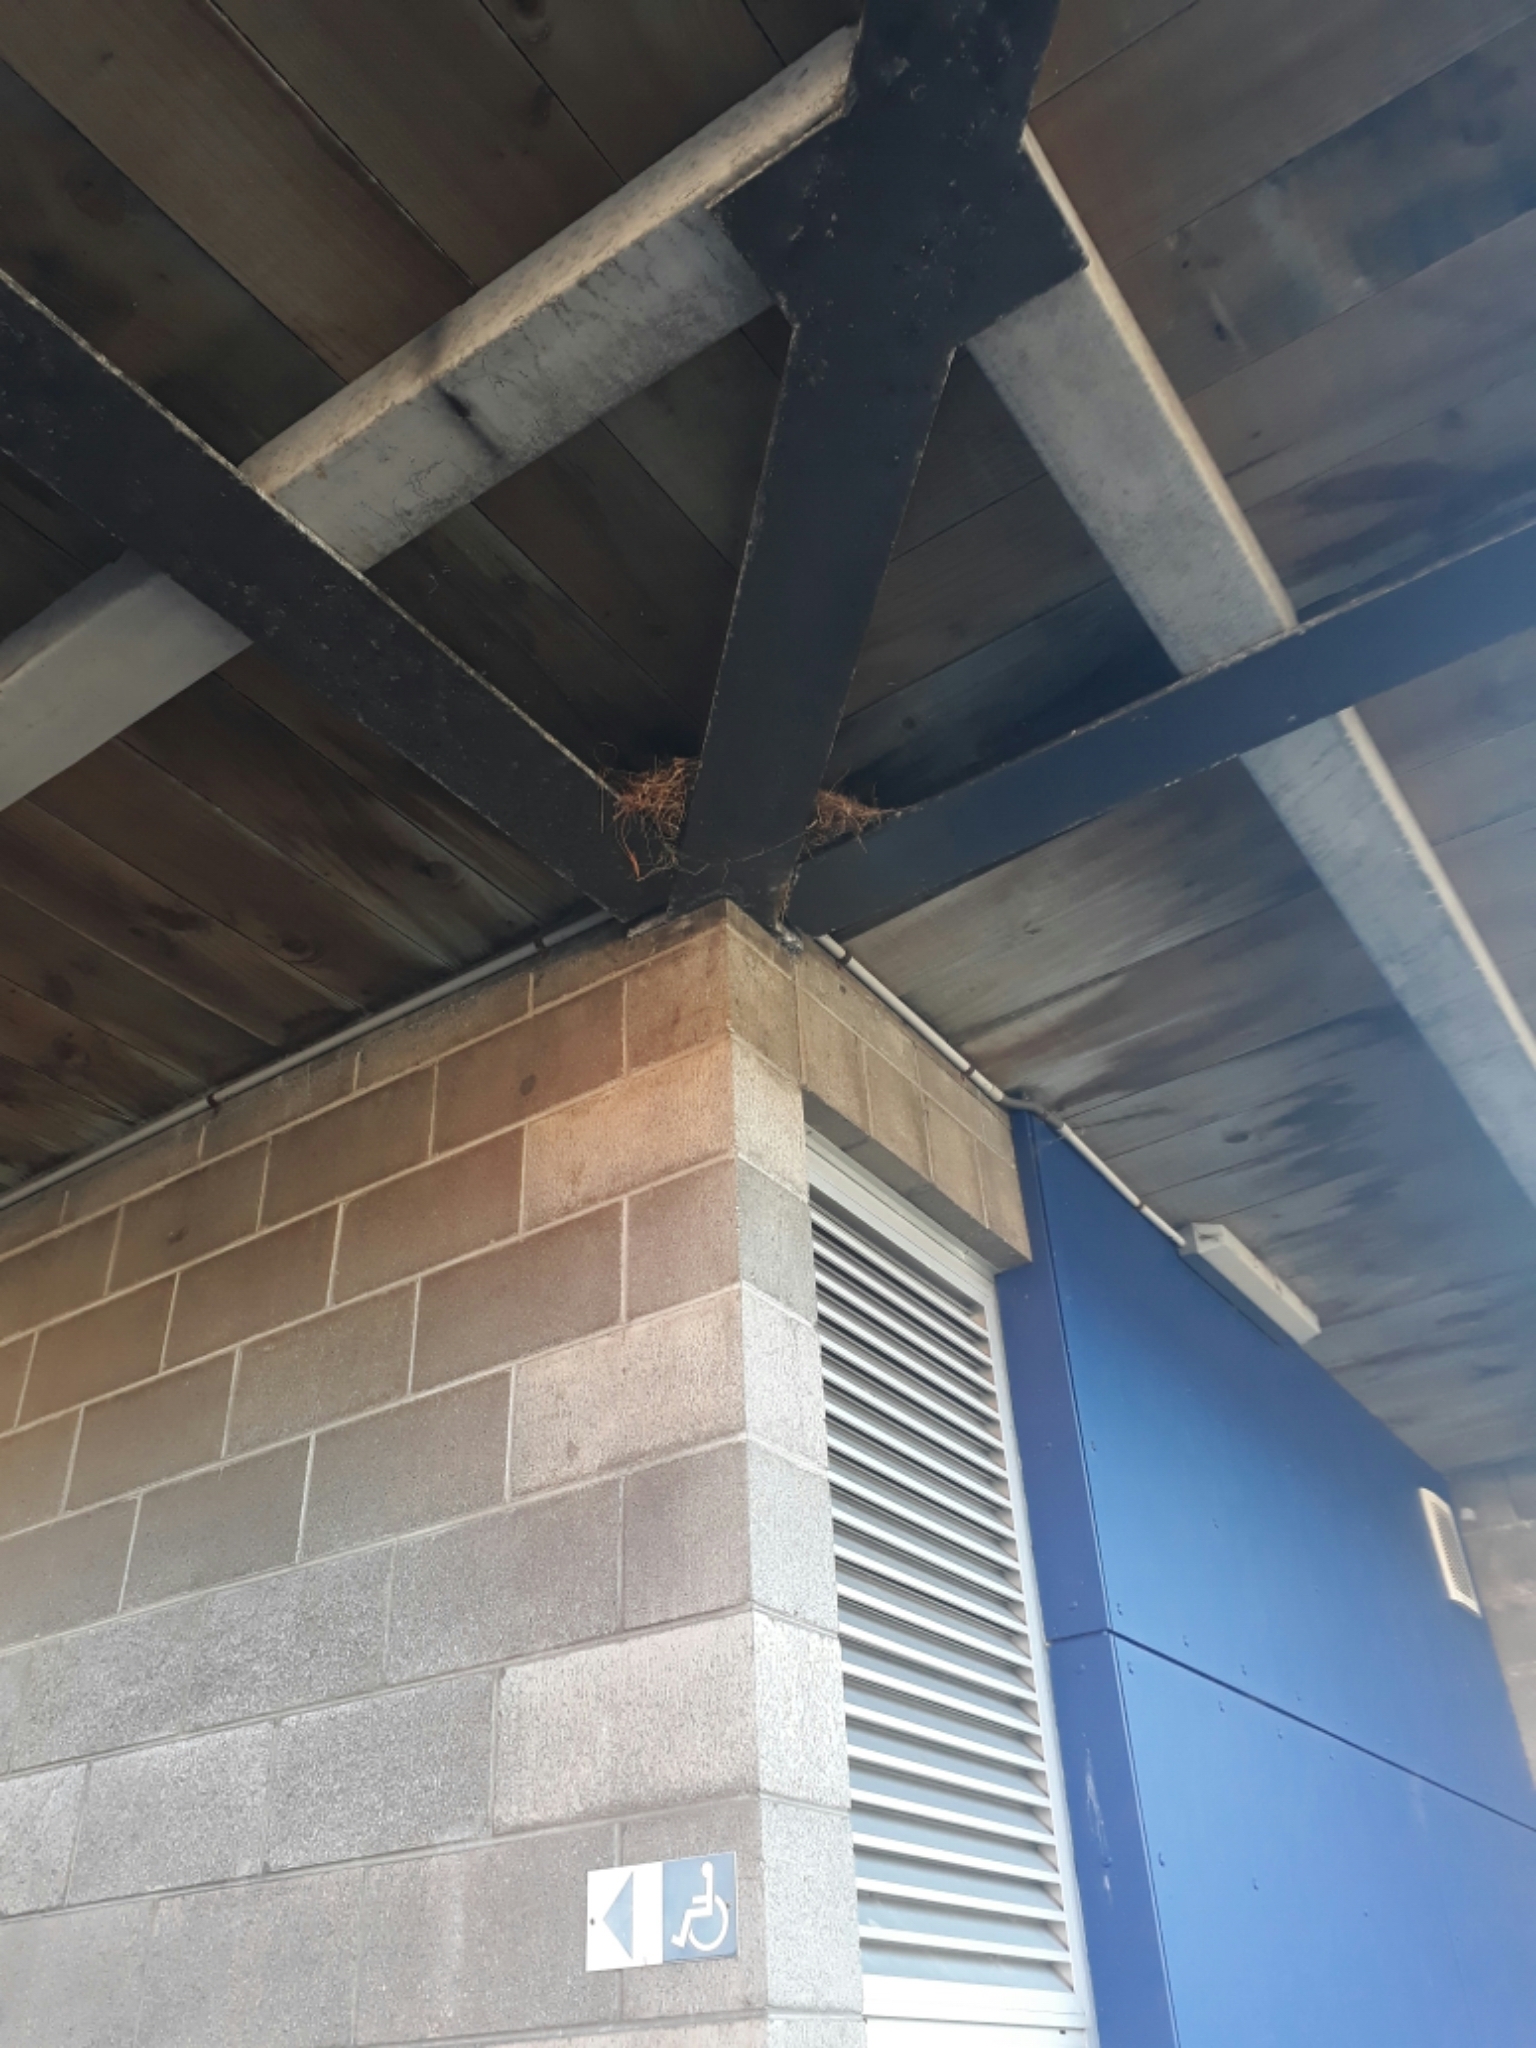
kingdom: Animalia
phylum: Chordata
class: Aves
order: Passeriformes
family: Passeridae
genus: Passer
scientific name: Passer domesticus
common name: House sparrow
